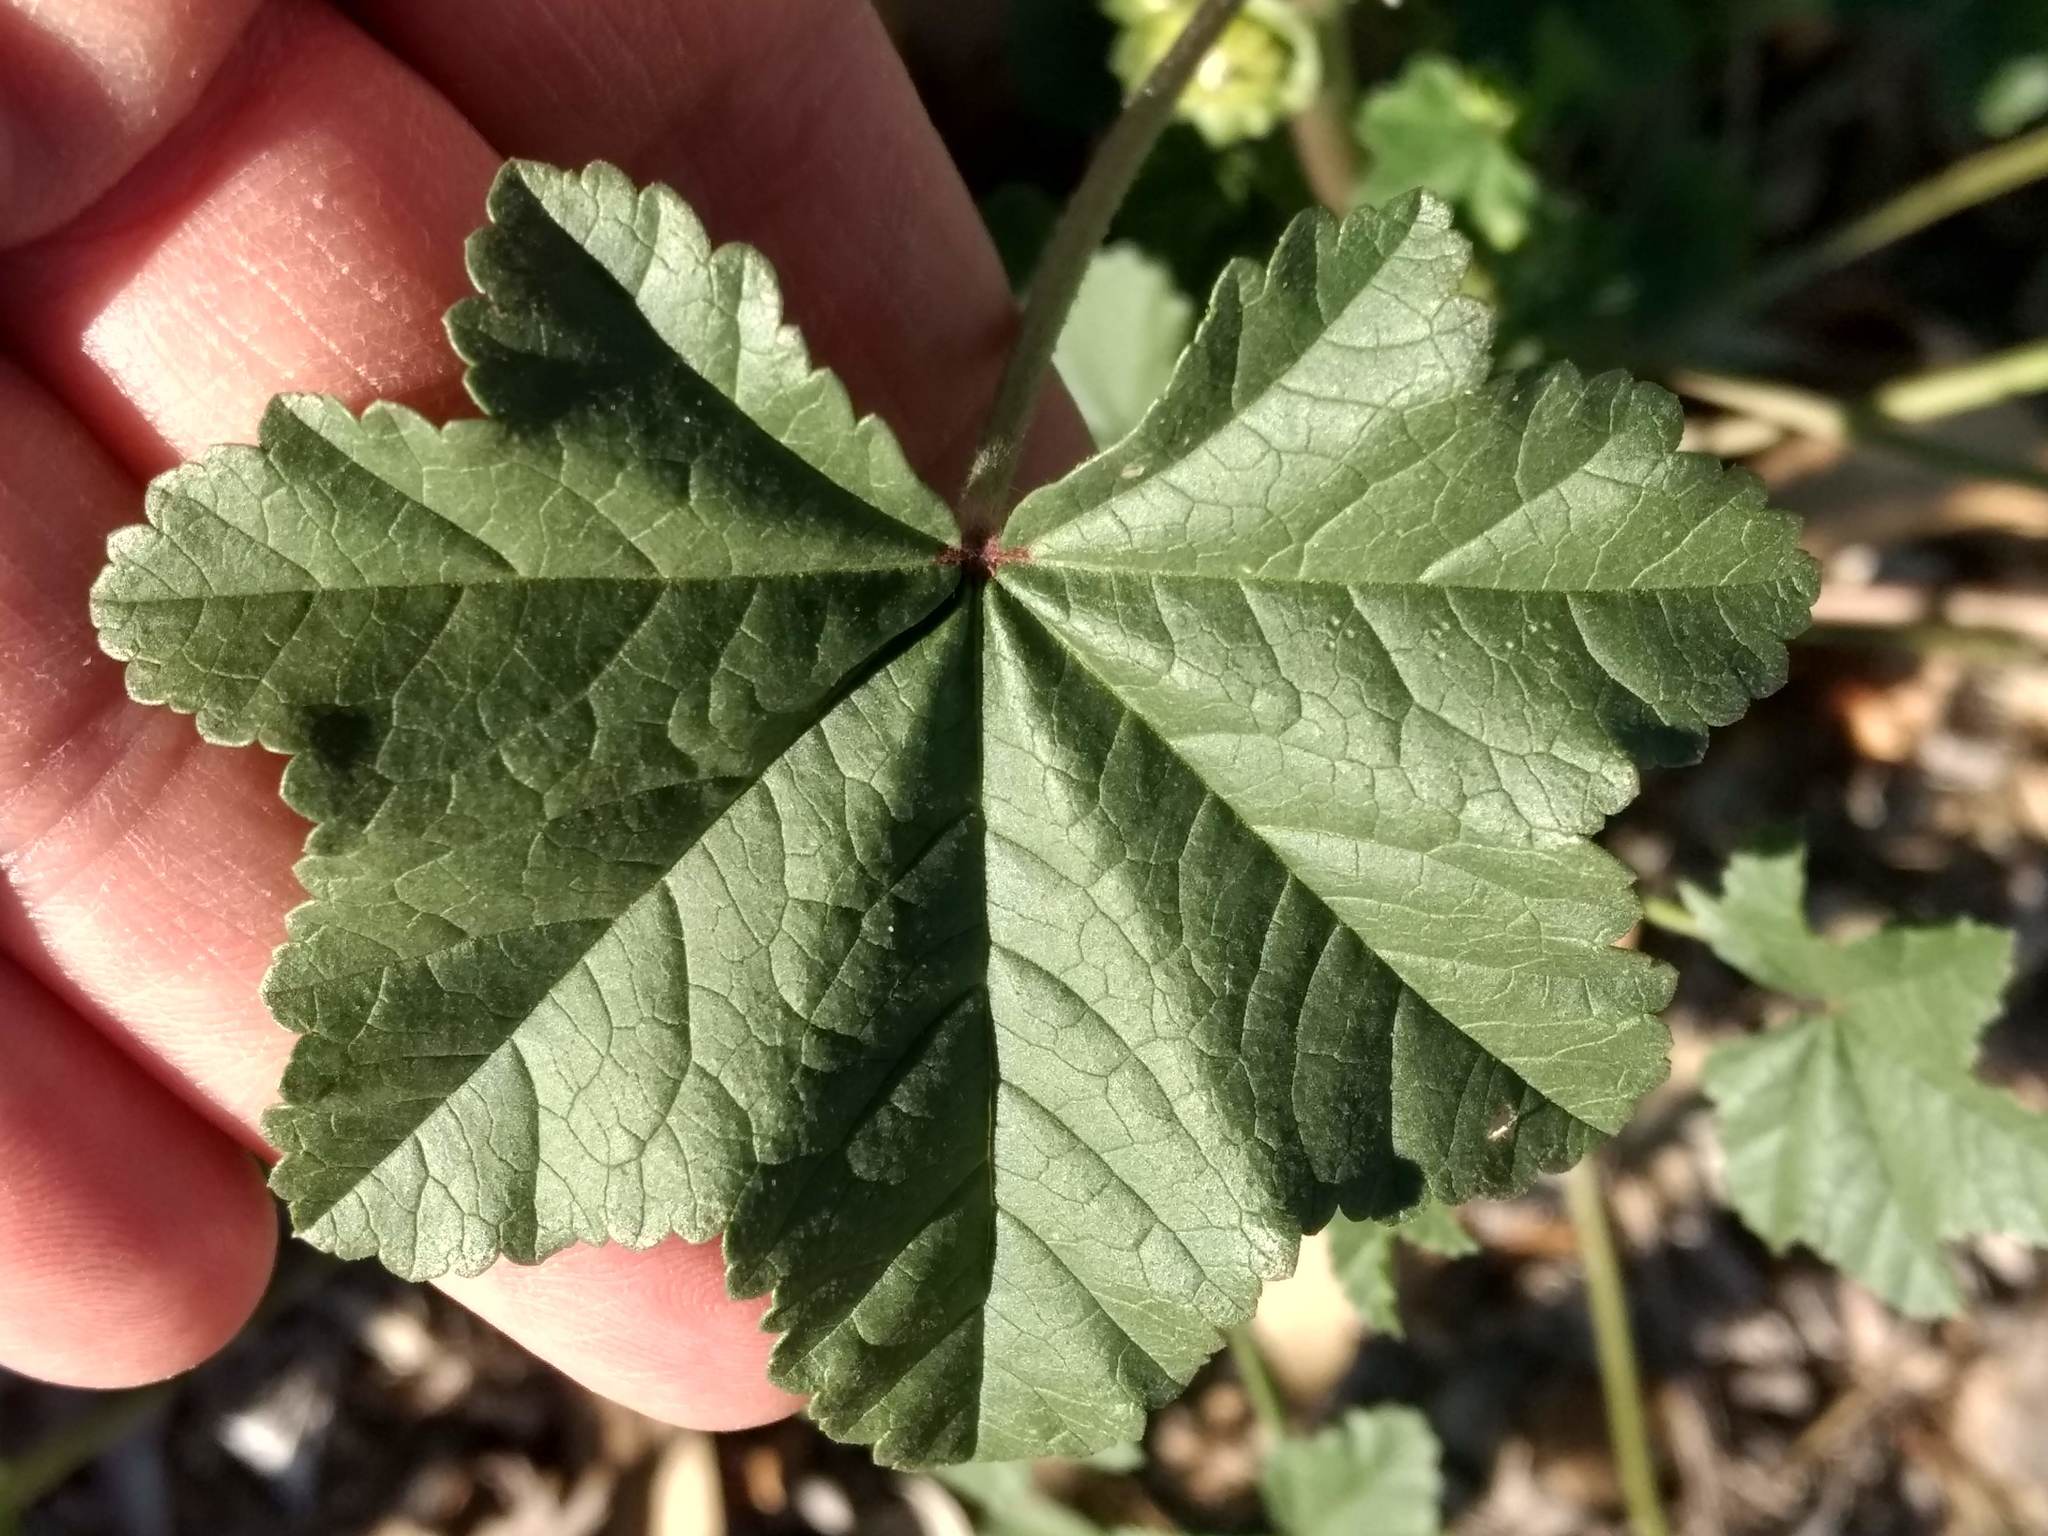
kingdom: Plantae
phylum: Tracheophyta
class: Magnoliopsida
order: Malvales
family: Malvaceae
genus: Malva
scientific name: Malva parviflora
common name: Least mallow
